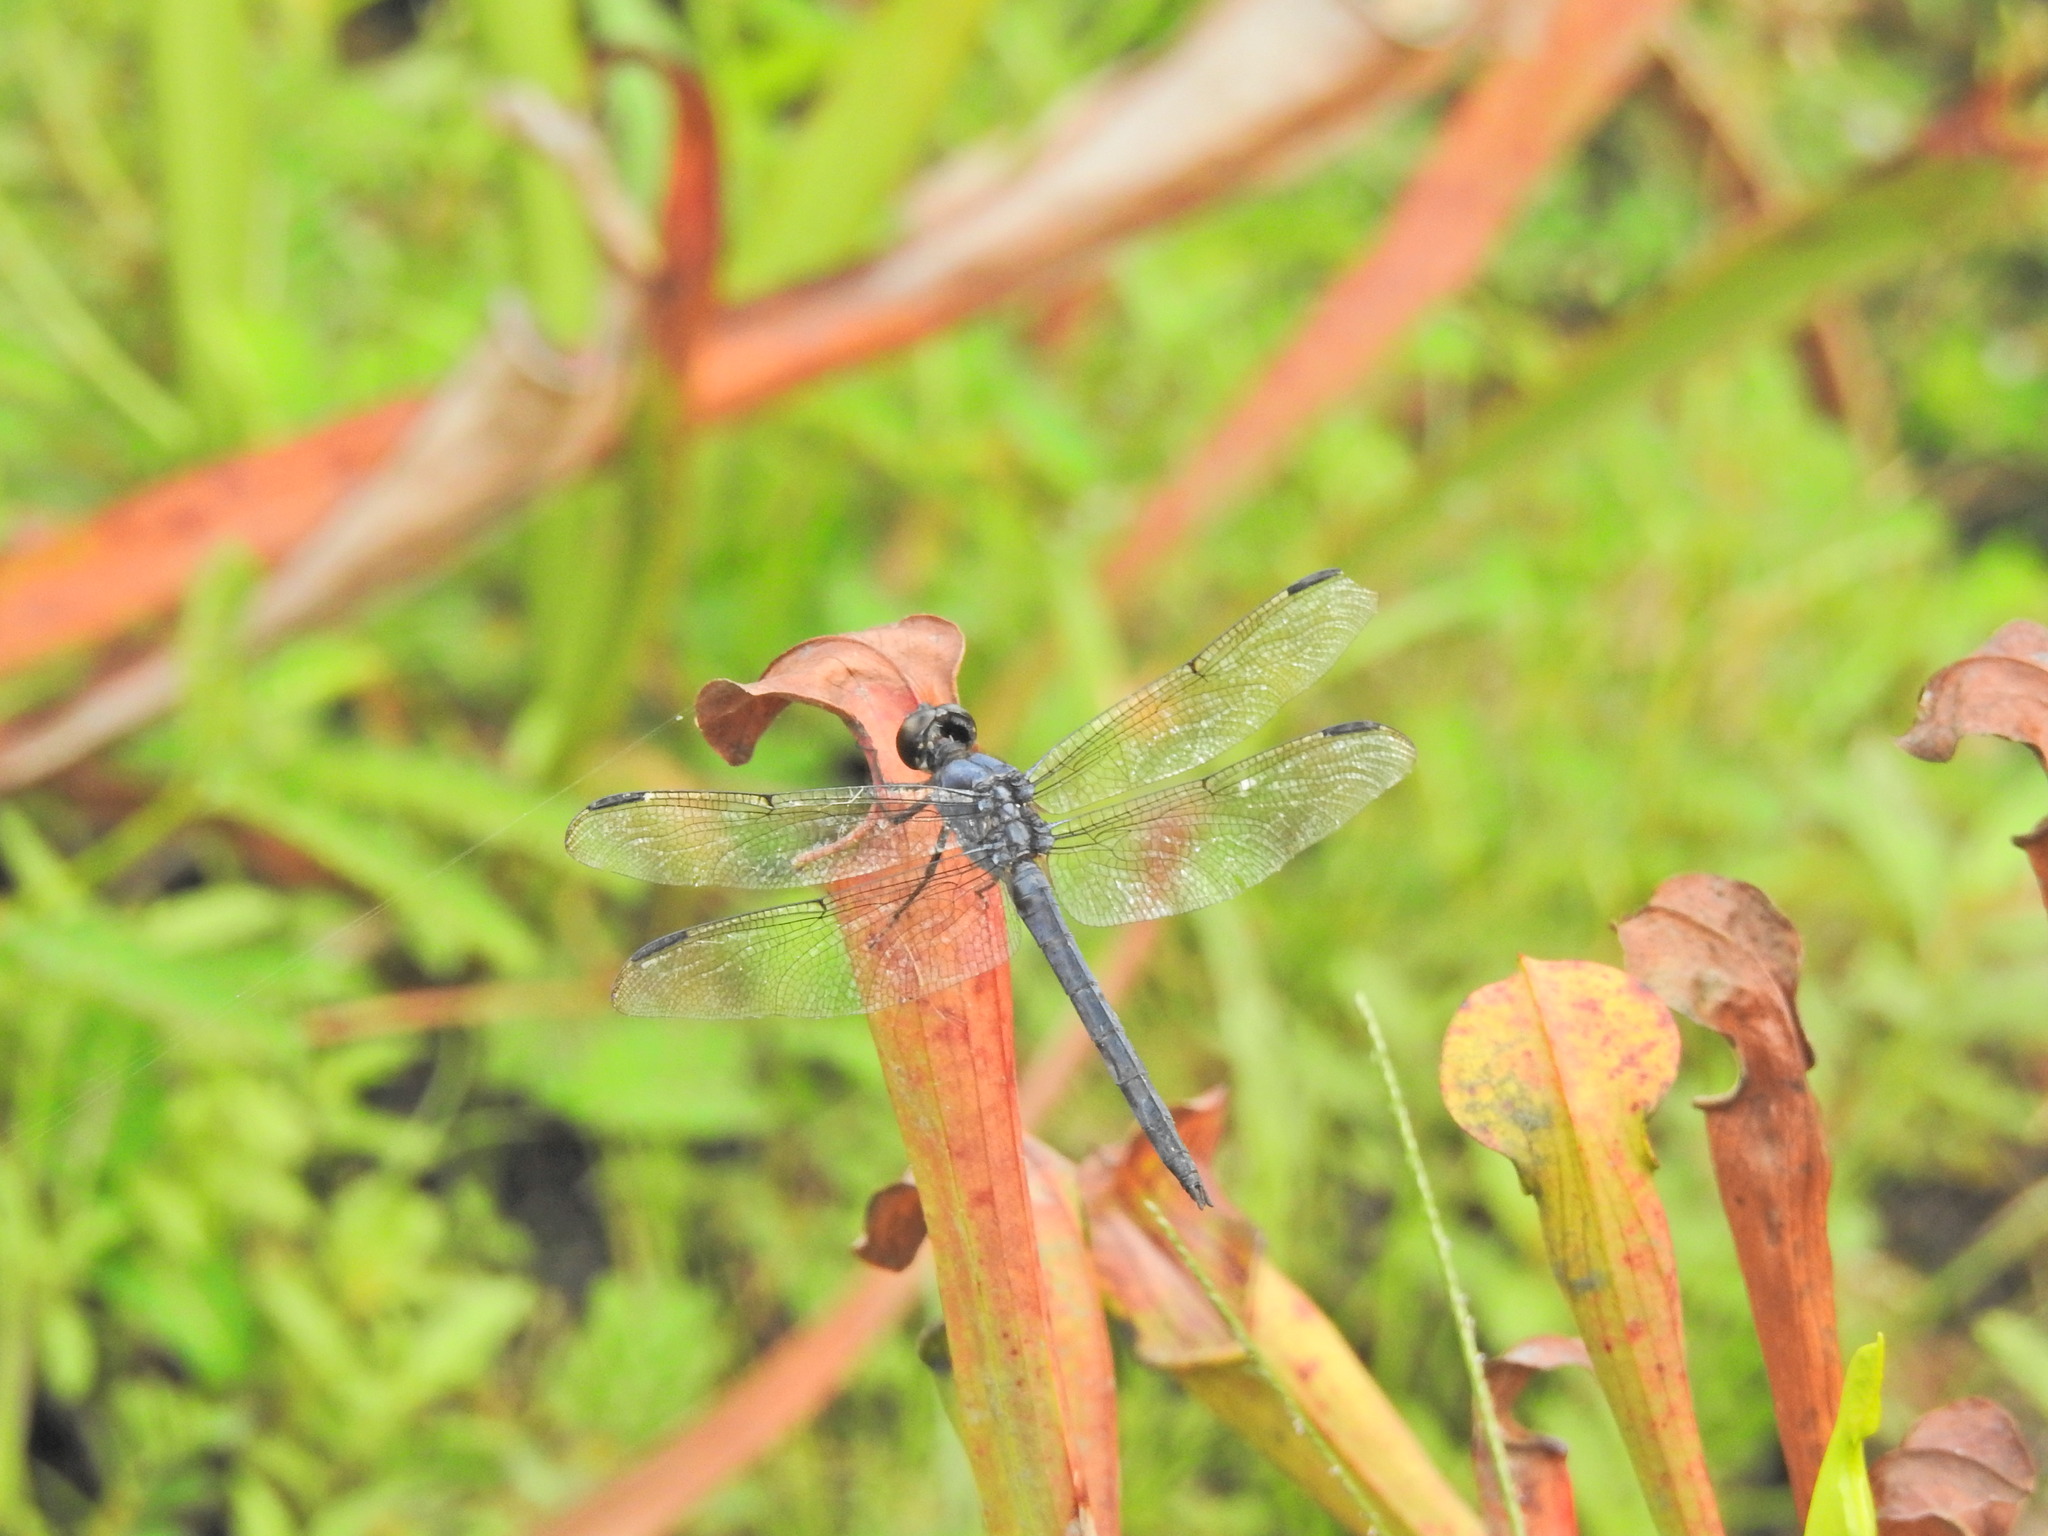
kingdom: Animalia
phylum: Arthropoda
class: Insecta
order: Odonata
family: Libellulidae
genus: Libellula
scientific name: Libellula incesta
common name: Slaty skimmer
